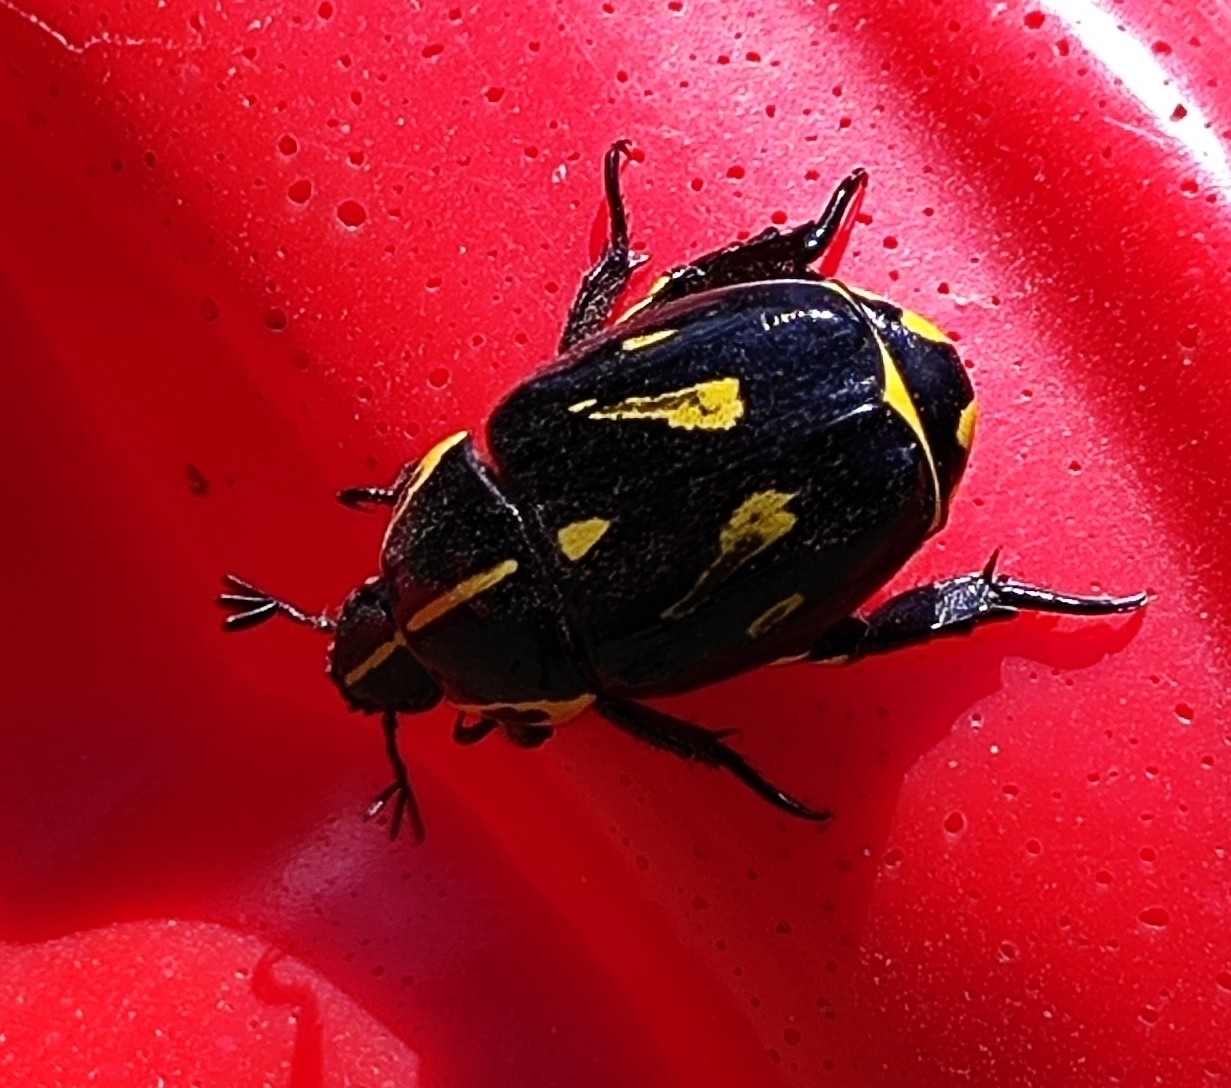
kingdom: Animalia
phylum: Arthropoda
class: Insecta
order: Coleoptera
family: Scarabaeidae
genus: Rutela
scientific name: Rutela lineola
